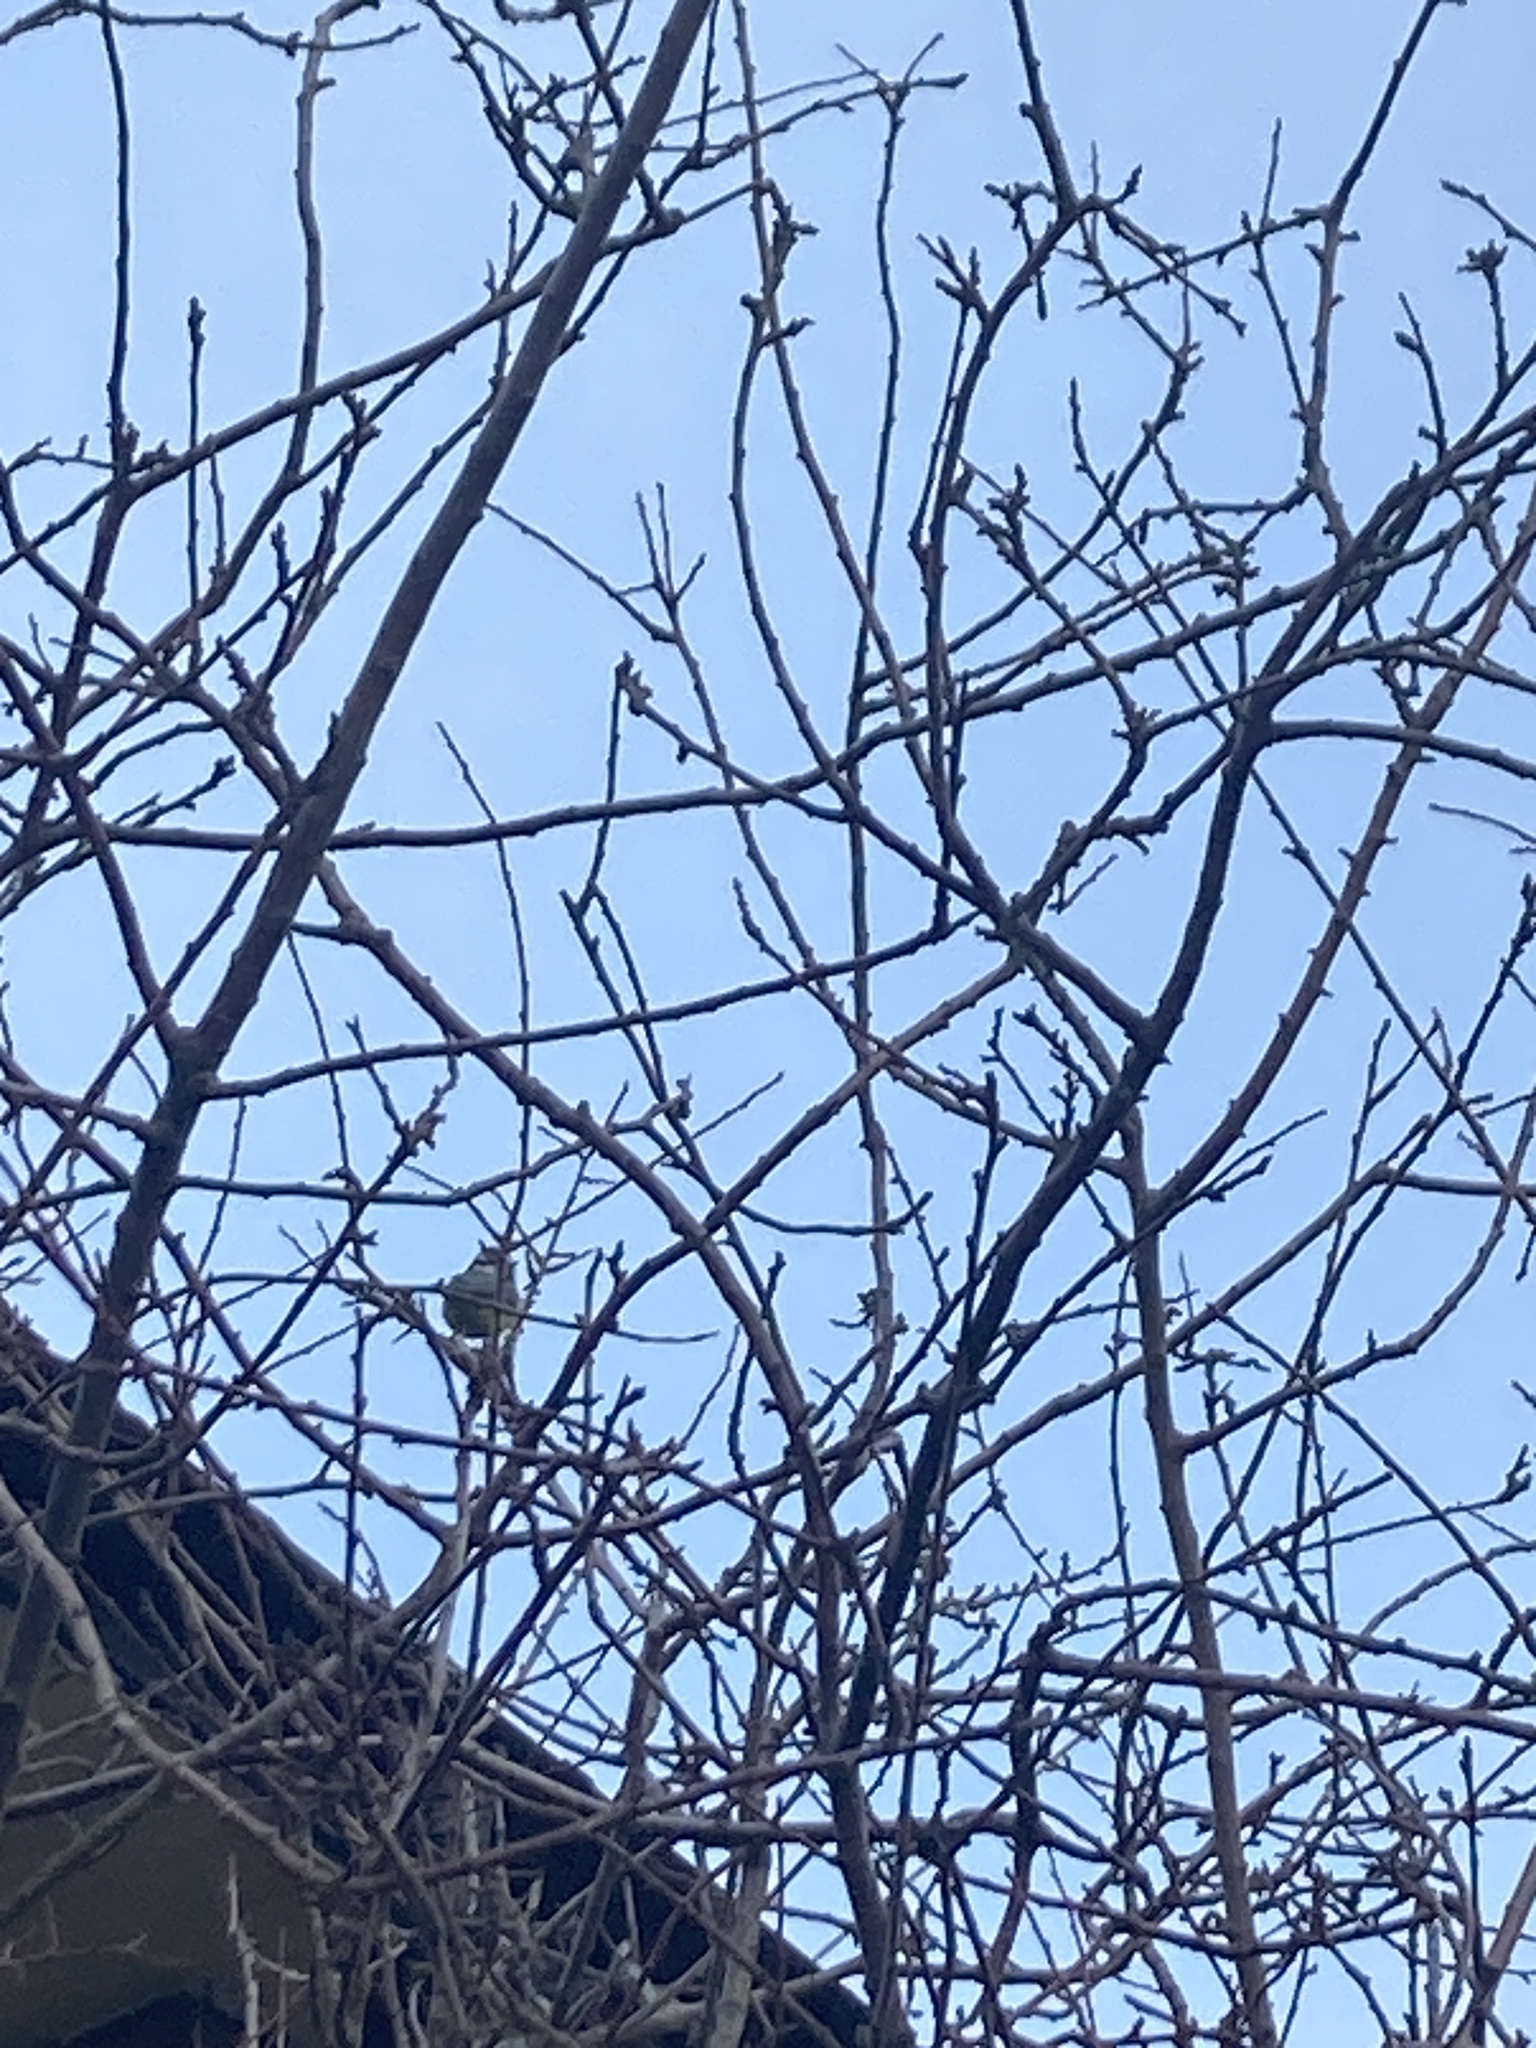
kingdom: Animalia
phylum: Chordata
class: Aves
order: Passeriformes
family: Paridae
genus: Cyanistes
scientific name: Cyanistes caeruleus
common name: Eurasian blue tit
